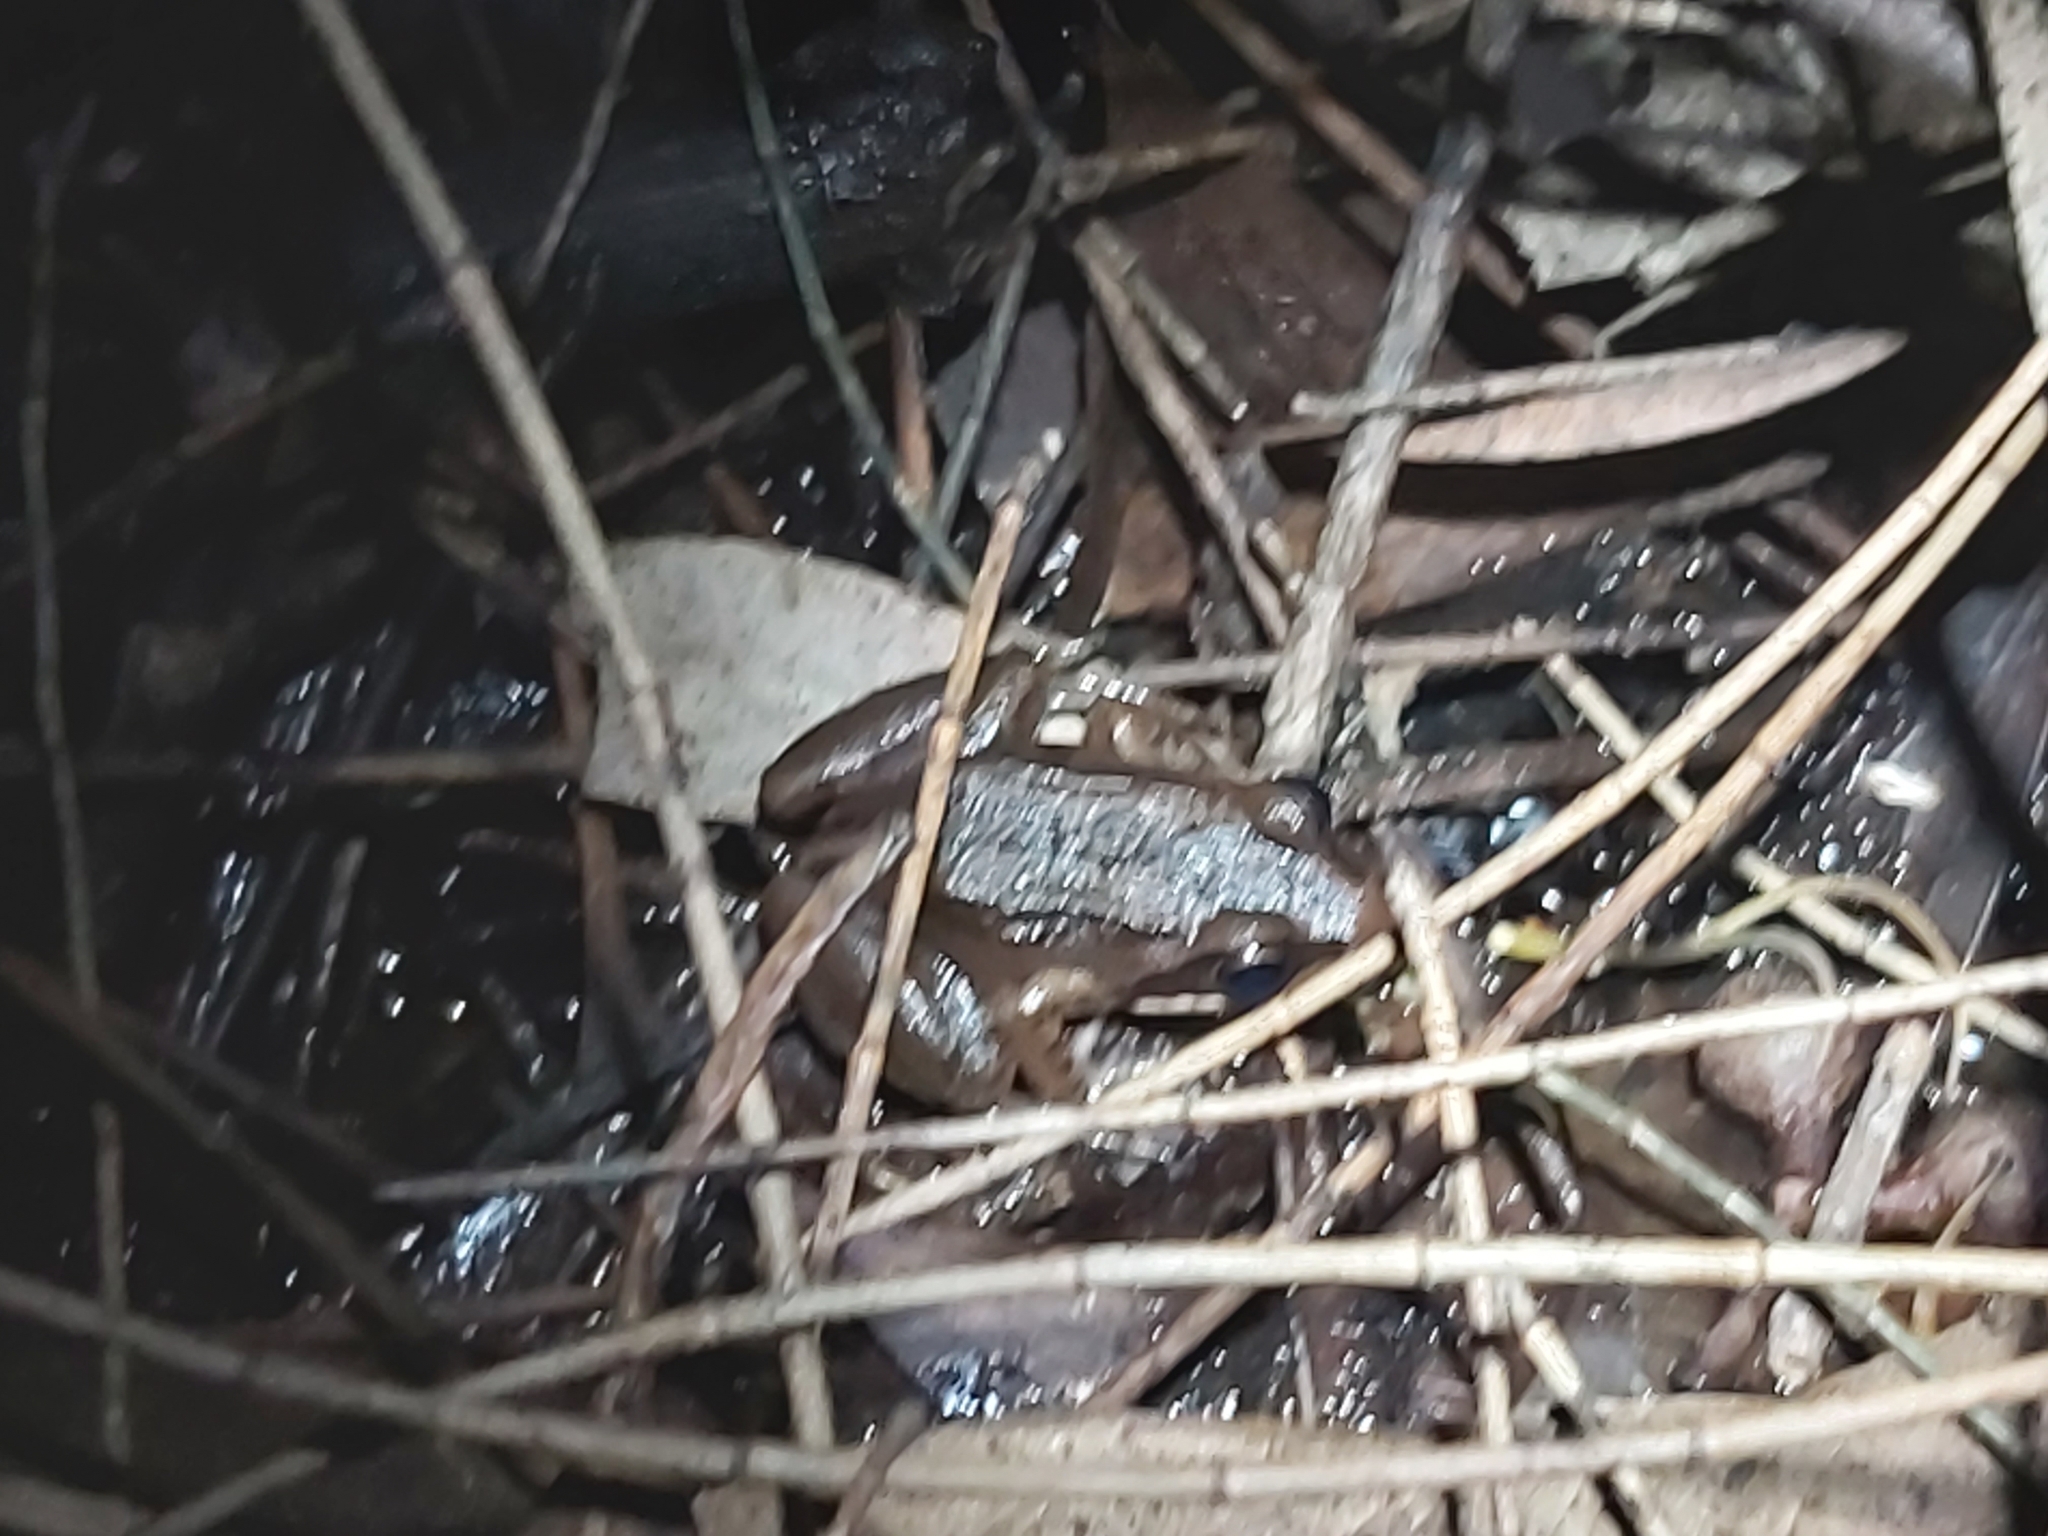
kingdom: Animalia
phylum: Chordata
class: Amphibia
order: Anura
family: Limnodynastidae
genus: Limnodynastes
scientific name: Limnodynastes peronii
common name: Brown frog
